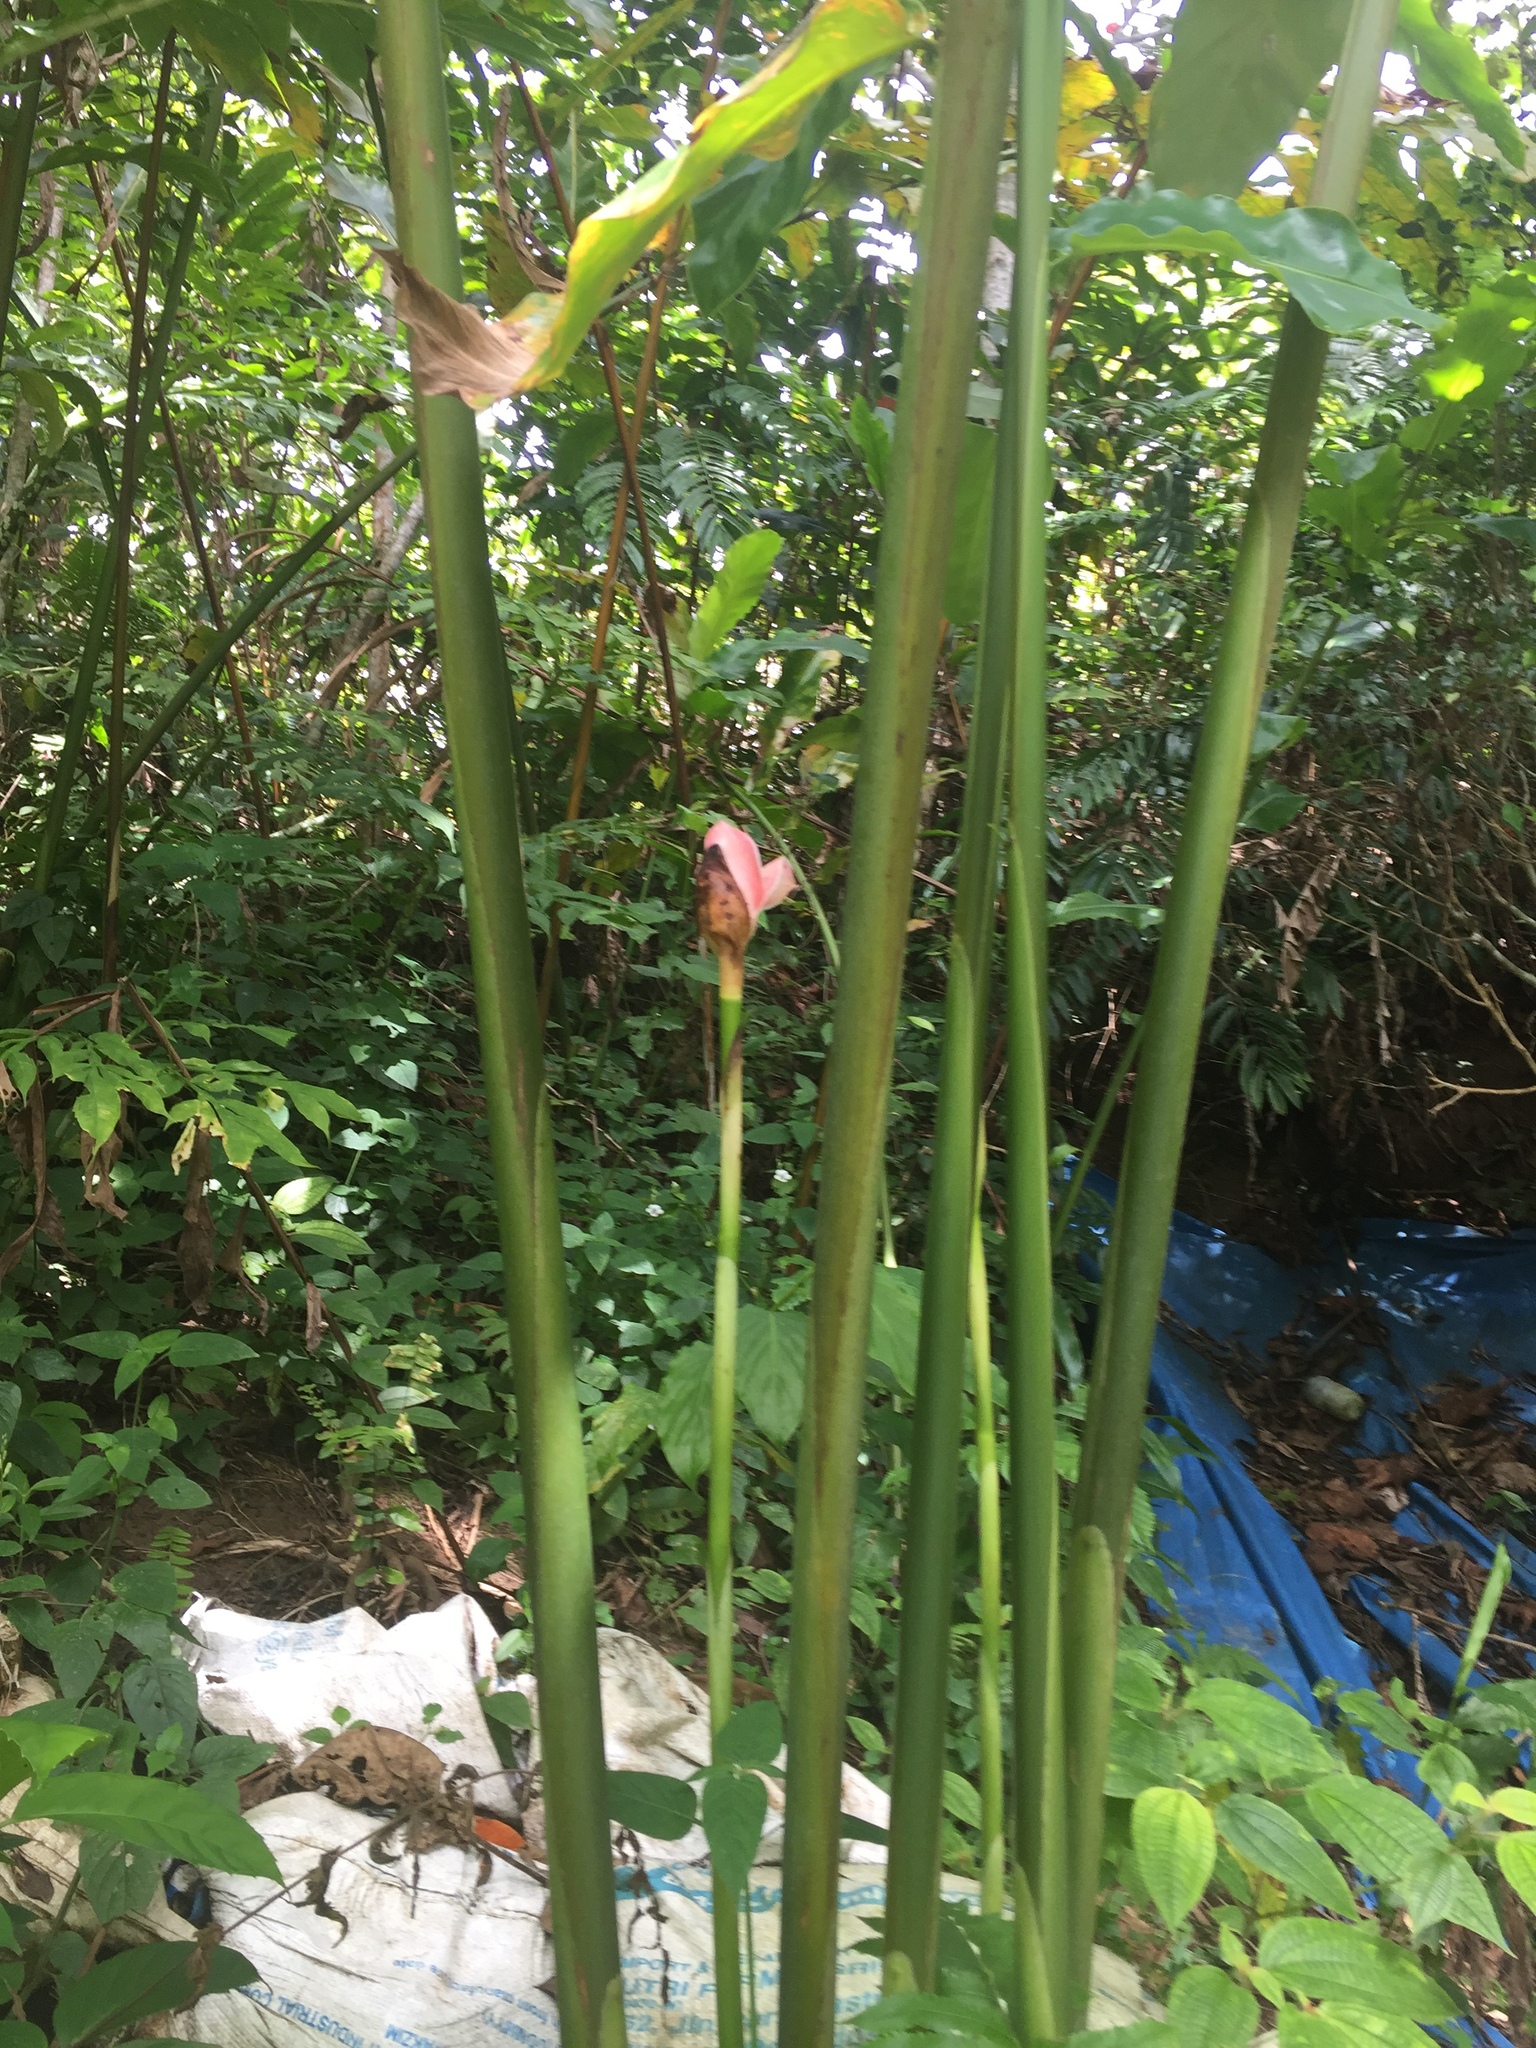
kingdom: Plantae
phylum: Tracheophyta
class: Liliopsida
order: Zingiberales
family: Zingiberaceae
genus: Etlingera
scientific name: Etlingera elatior
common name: Philippine waxflower
